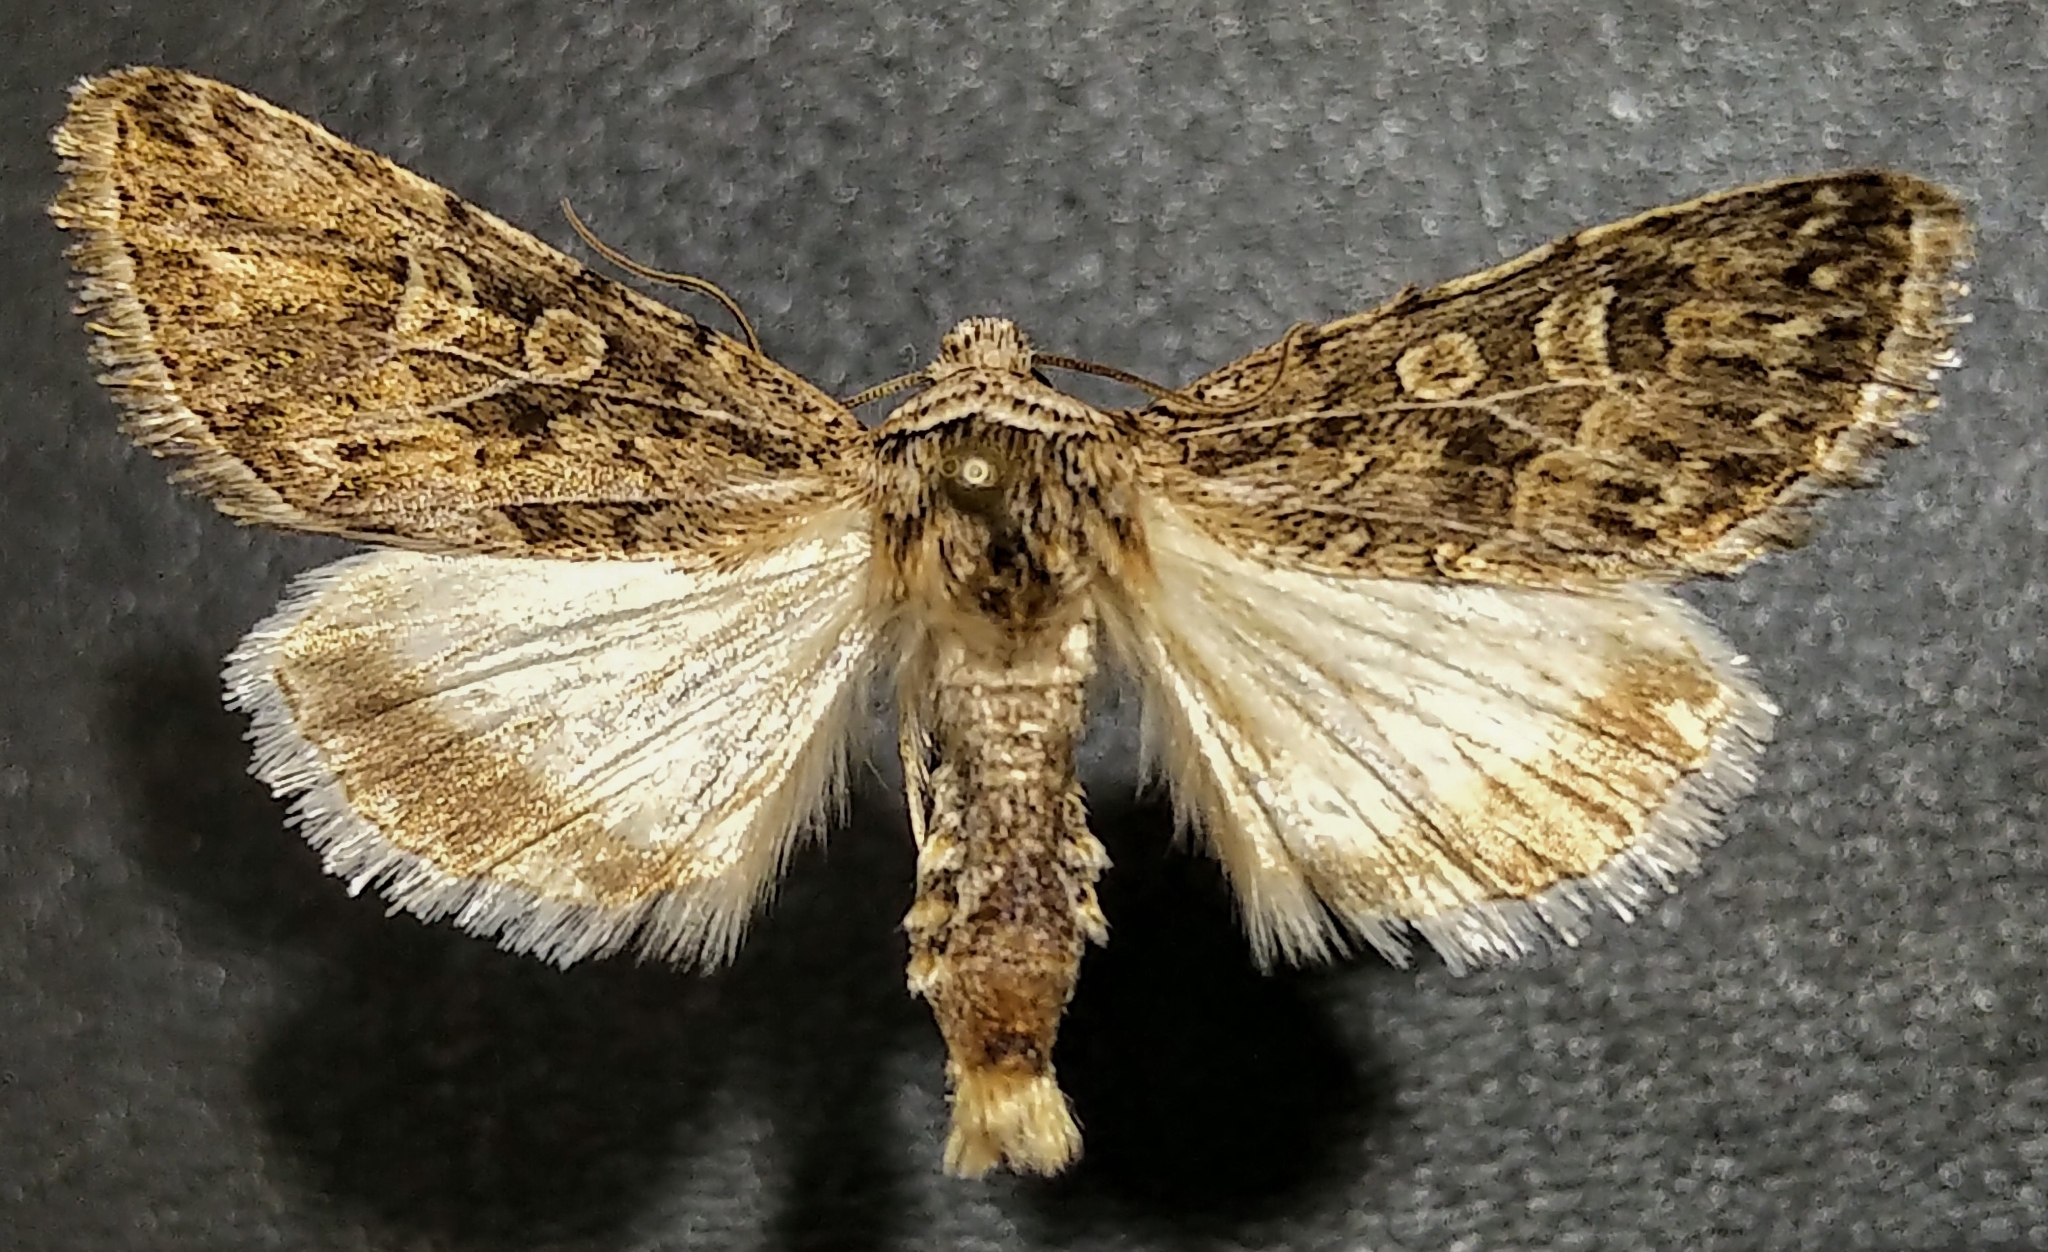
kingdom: Animalia
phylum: Arthropoda
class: Insecta
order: Lepidoptera
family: Noctuidae
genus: Sympistis
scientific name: Sympistis augustus
